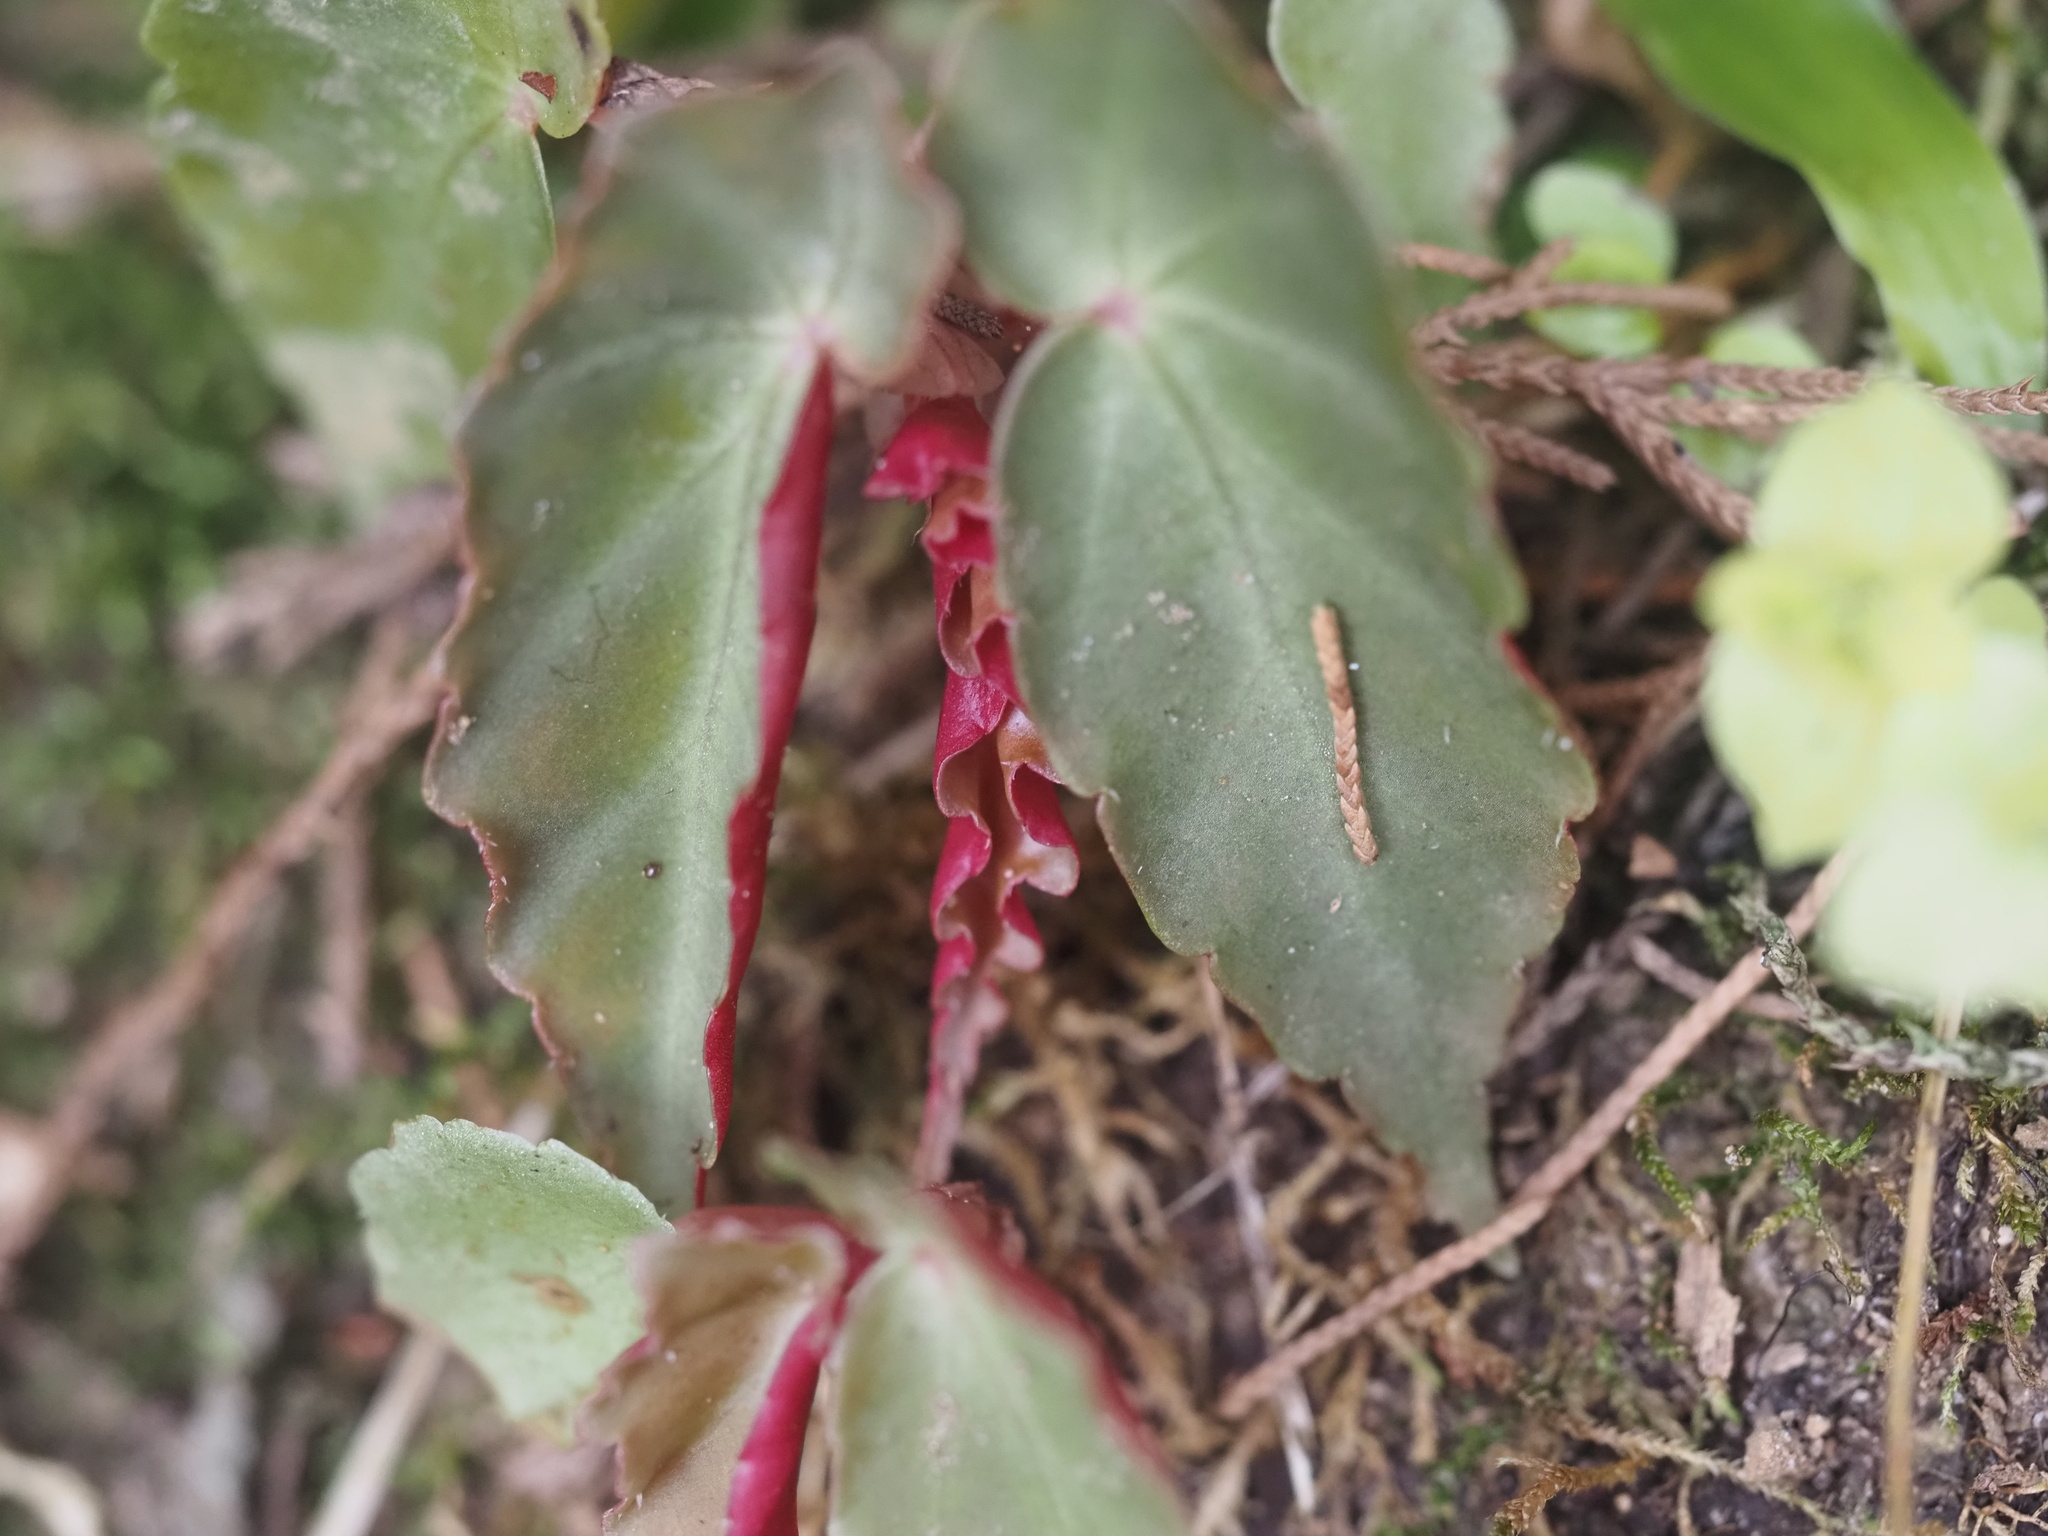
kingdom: Plantae
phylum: Tracheophyta
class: Magnoliopsida
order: Cucurbitales
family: Begoniaceae
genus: Begonia
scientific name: Begonia angularis
